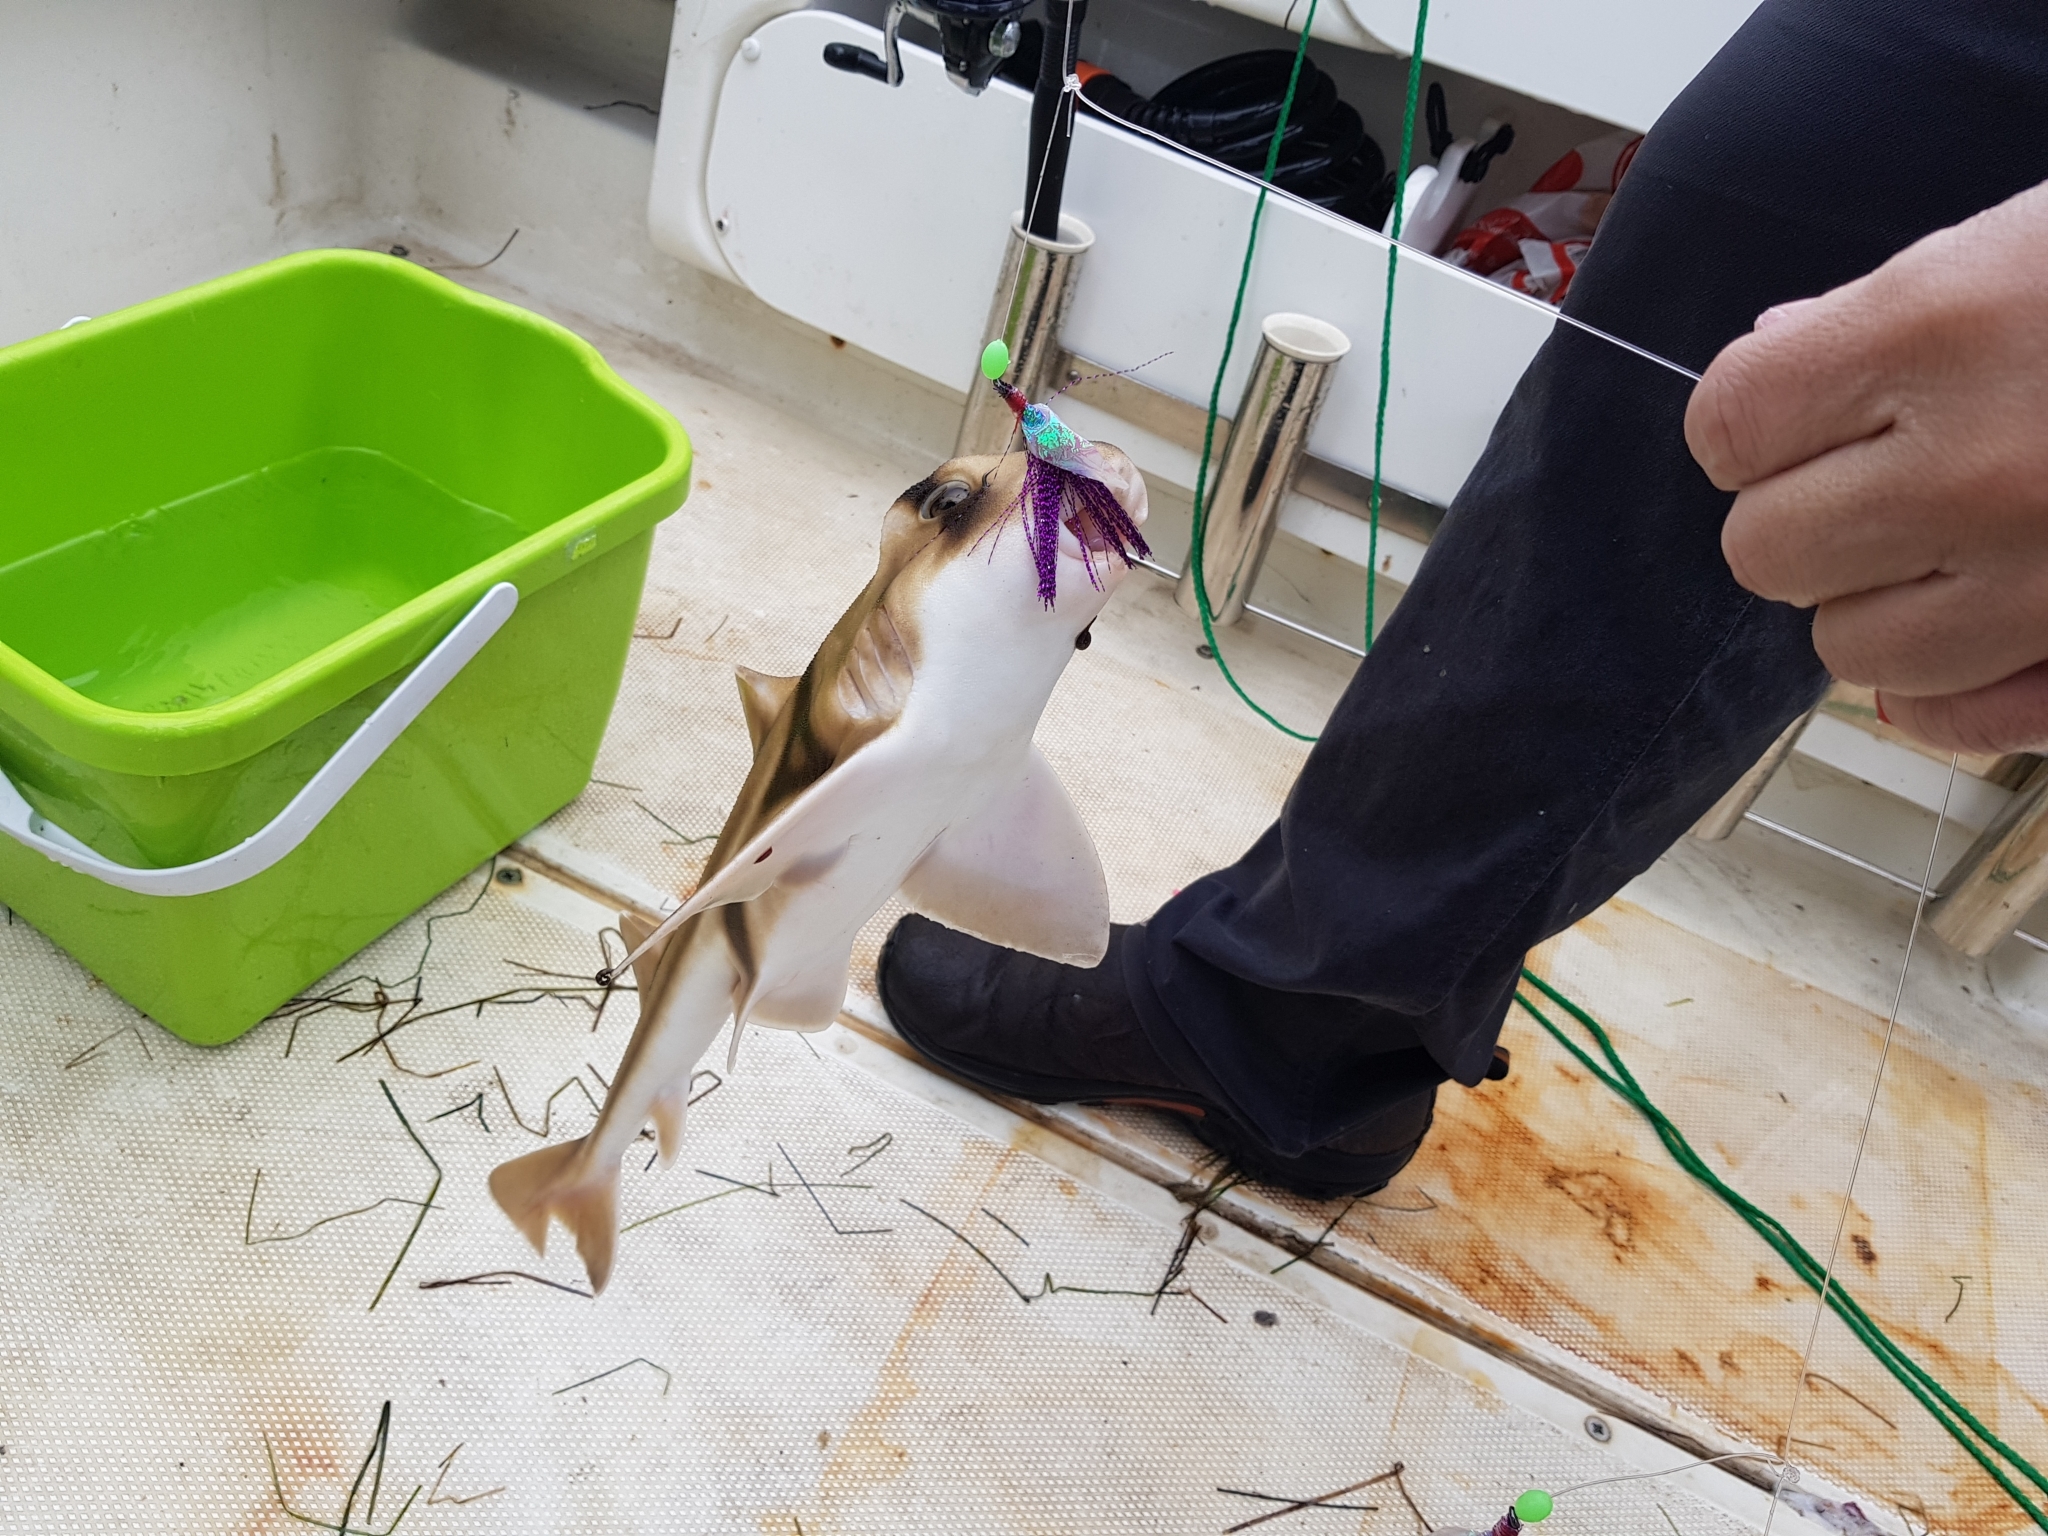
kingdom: Animalia
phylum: Chordata
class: Elasmobranchii
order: Heterodontiformes
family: Heterodontidae
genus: Heterodontus
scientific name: Heterodontus portusjacksoni
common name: Port jackson shark
